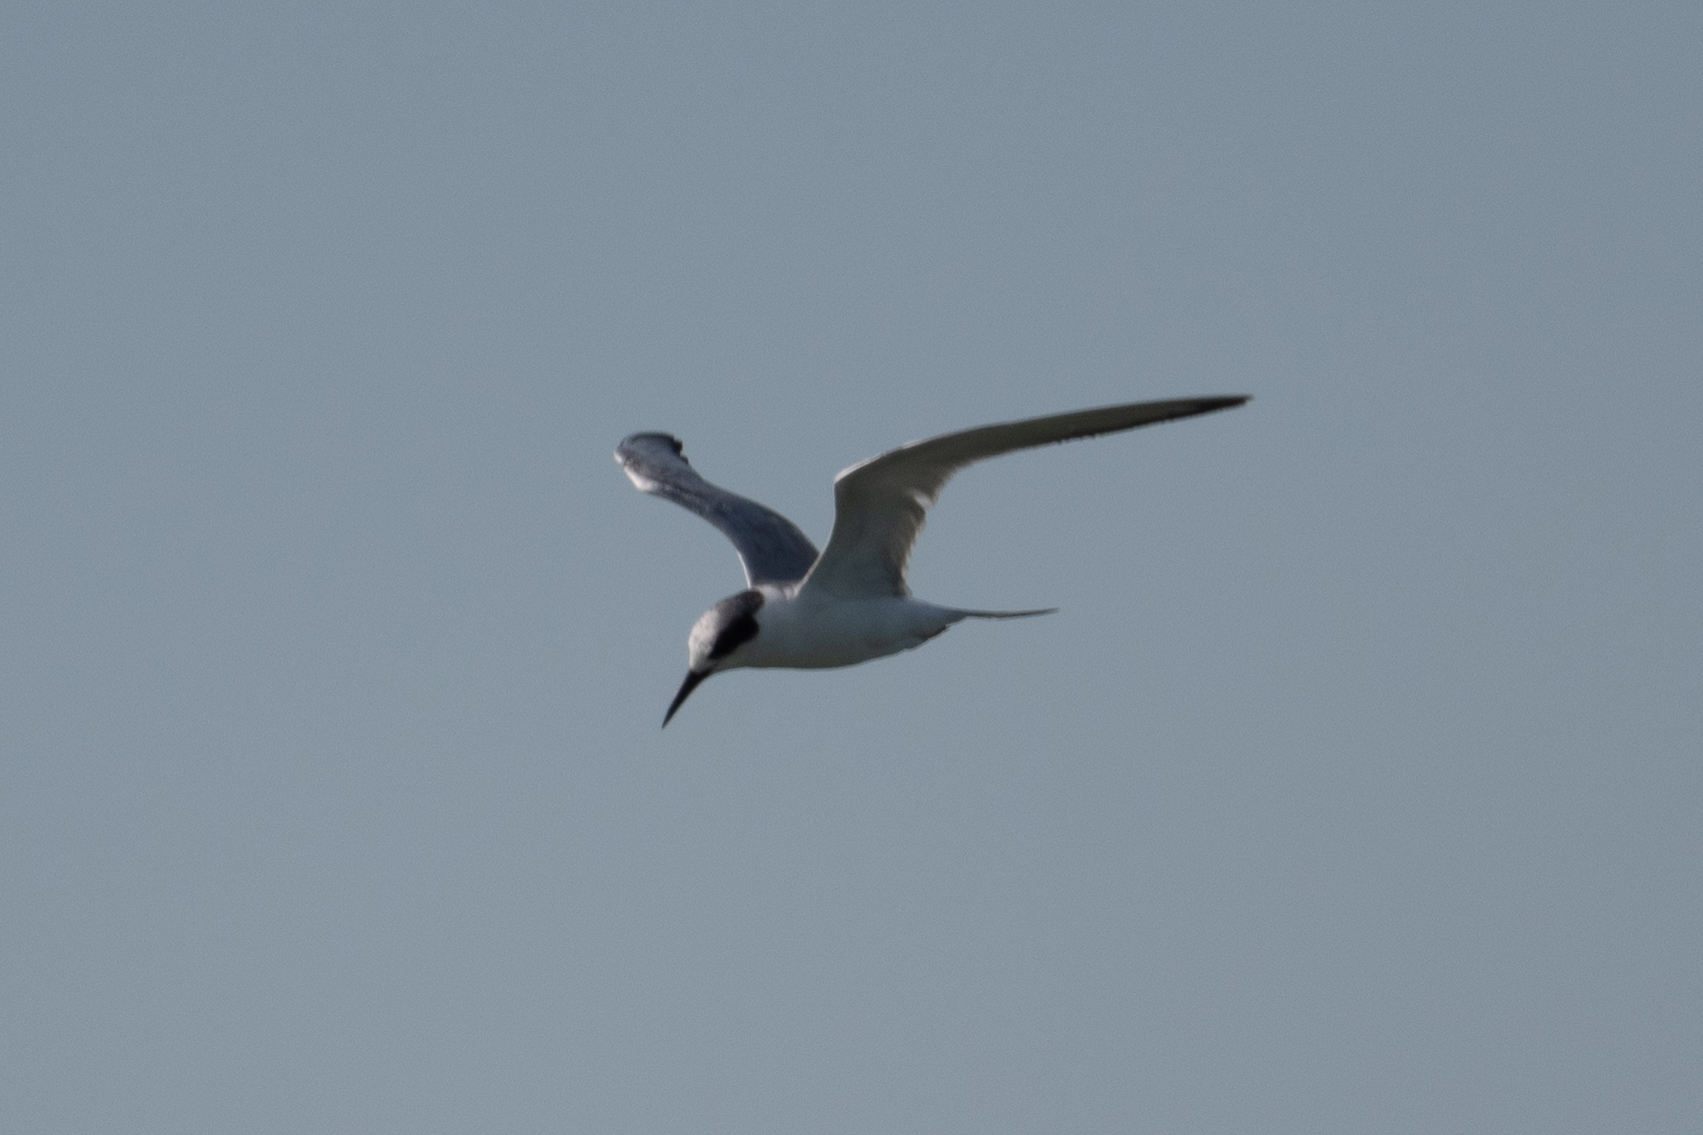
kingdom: Animalia
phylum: Chordata
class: Aves
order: Charadriiformes
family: Laridae
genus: Sterna
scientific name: Sterna forsteri
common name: Forster's tern
